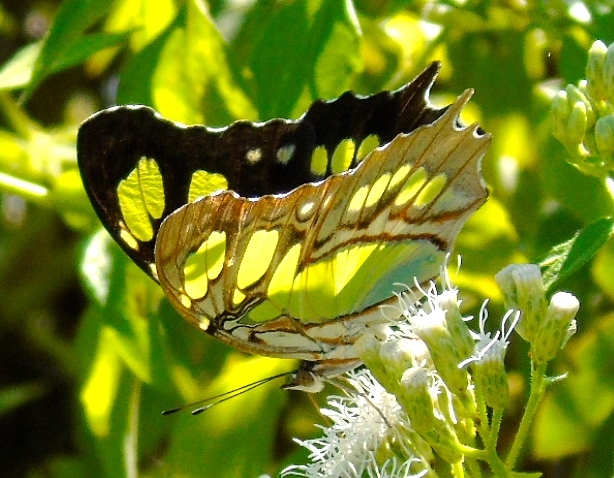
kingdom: Plantae
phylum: Tracheophyta
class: Magnoliopsida
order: Asterales
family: Asteraceae
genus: Chromolaena
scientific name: Chromolaena odorata
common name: Siamweed
